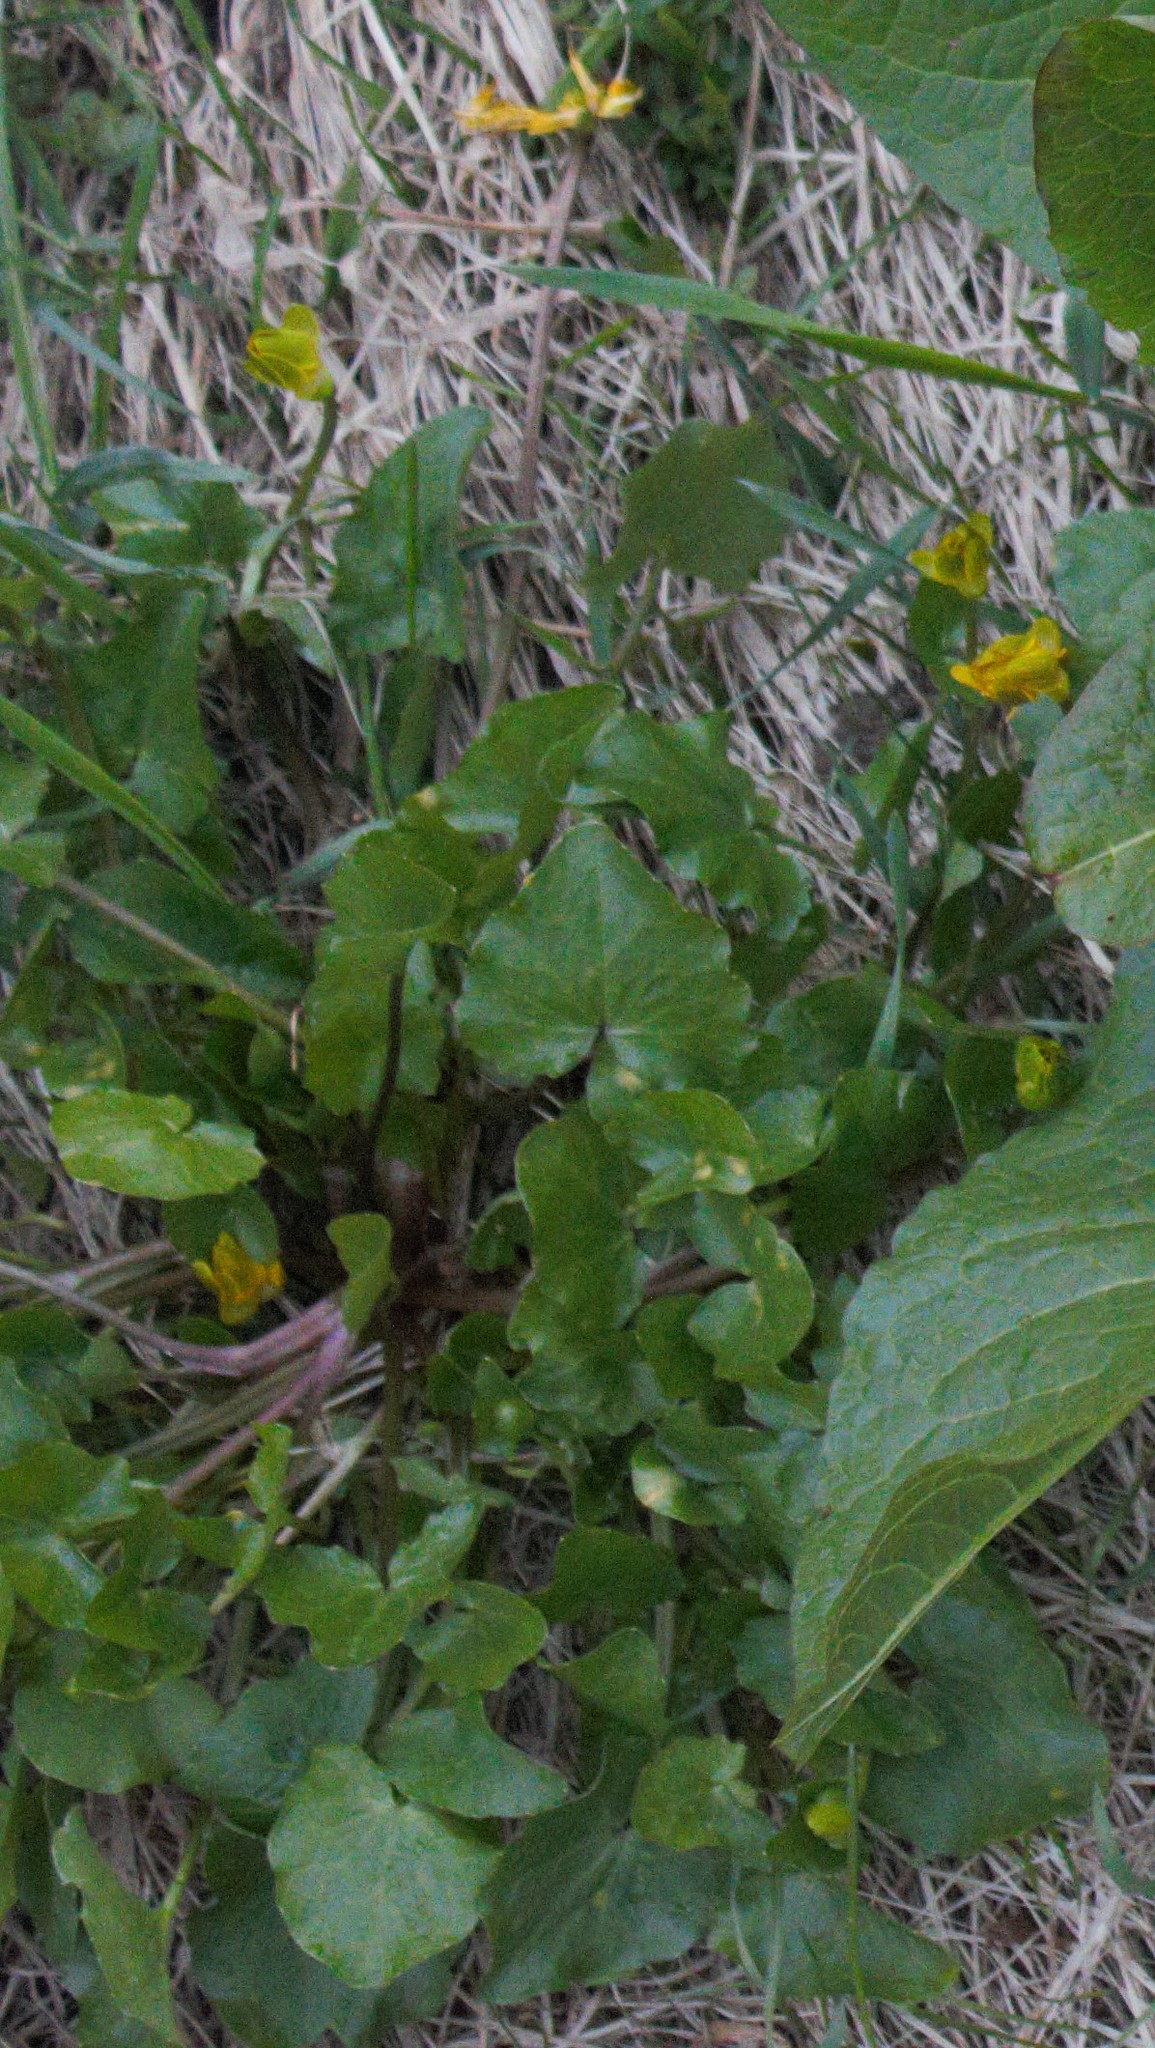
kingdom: Plantae
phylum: Tracheophyta
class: Magnoliopsida
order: Ranunculales
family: Ranunculaceae
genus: Ficaria
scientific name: Ficaria verna
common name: Lesser celandine
